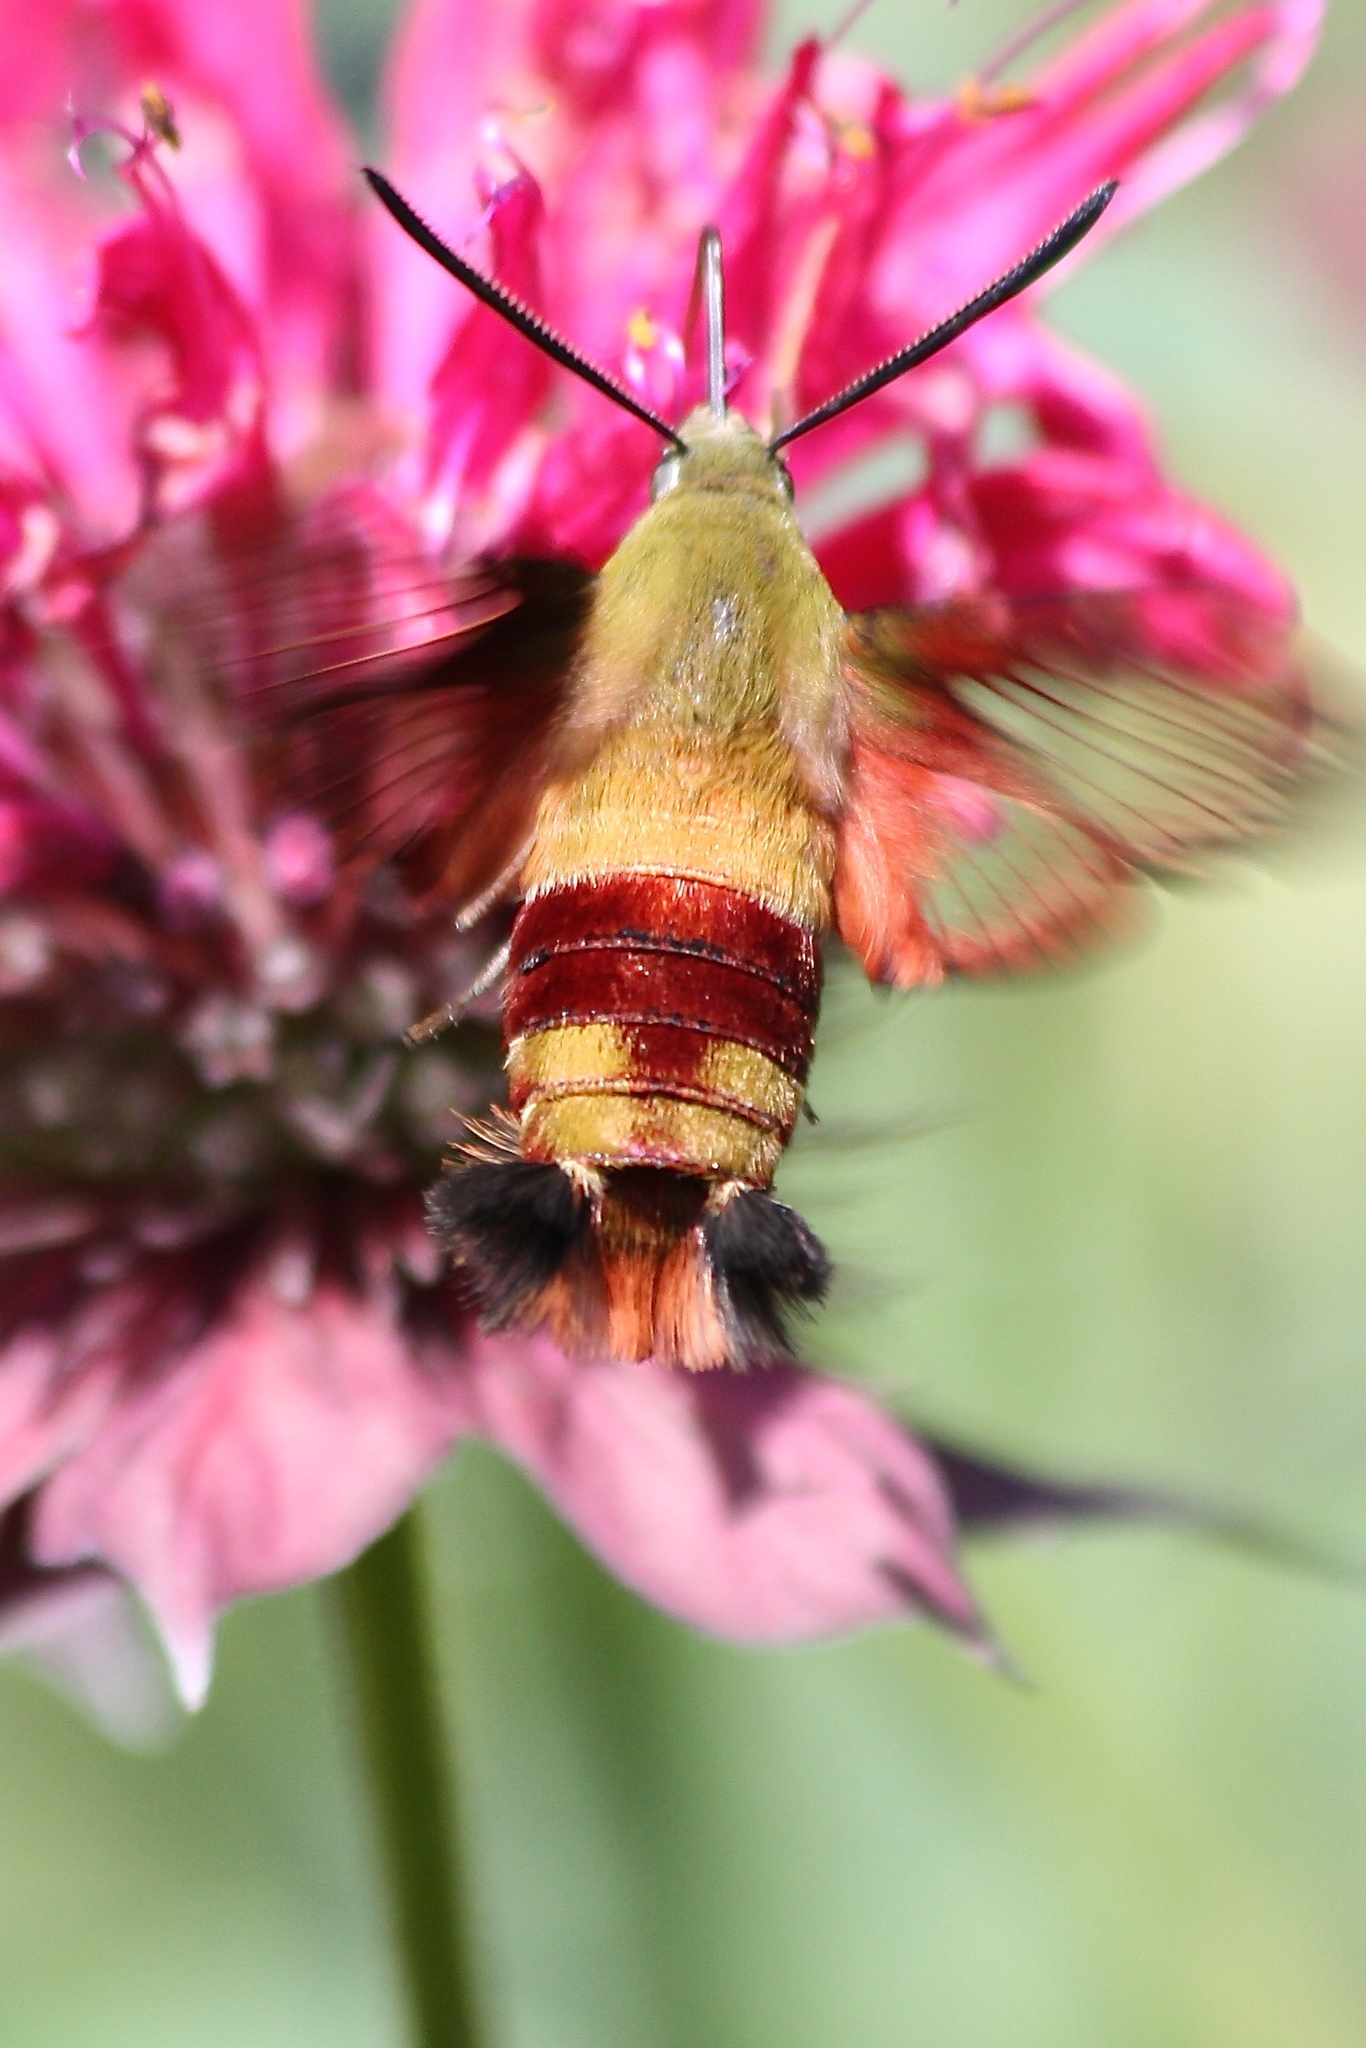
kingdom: Animalia
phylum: Arthropoda
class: Insecta
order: Lepidoptera
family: Sphingidae
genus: Hemaris
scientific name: Hemaris thysbe
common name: Common clear-wing
